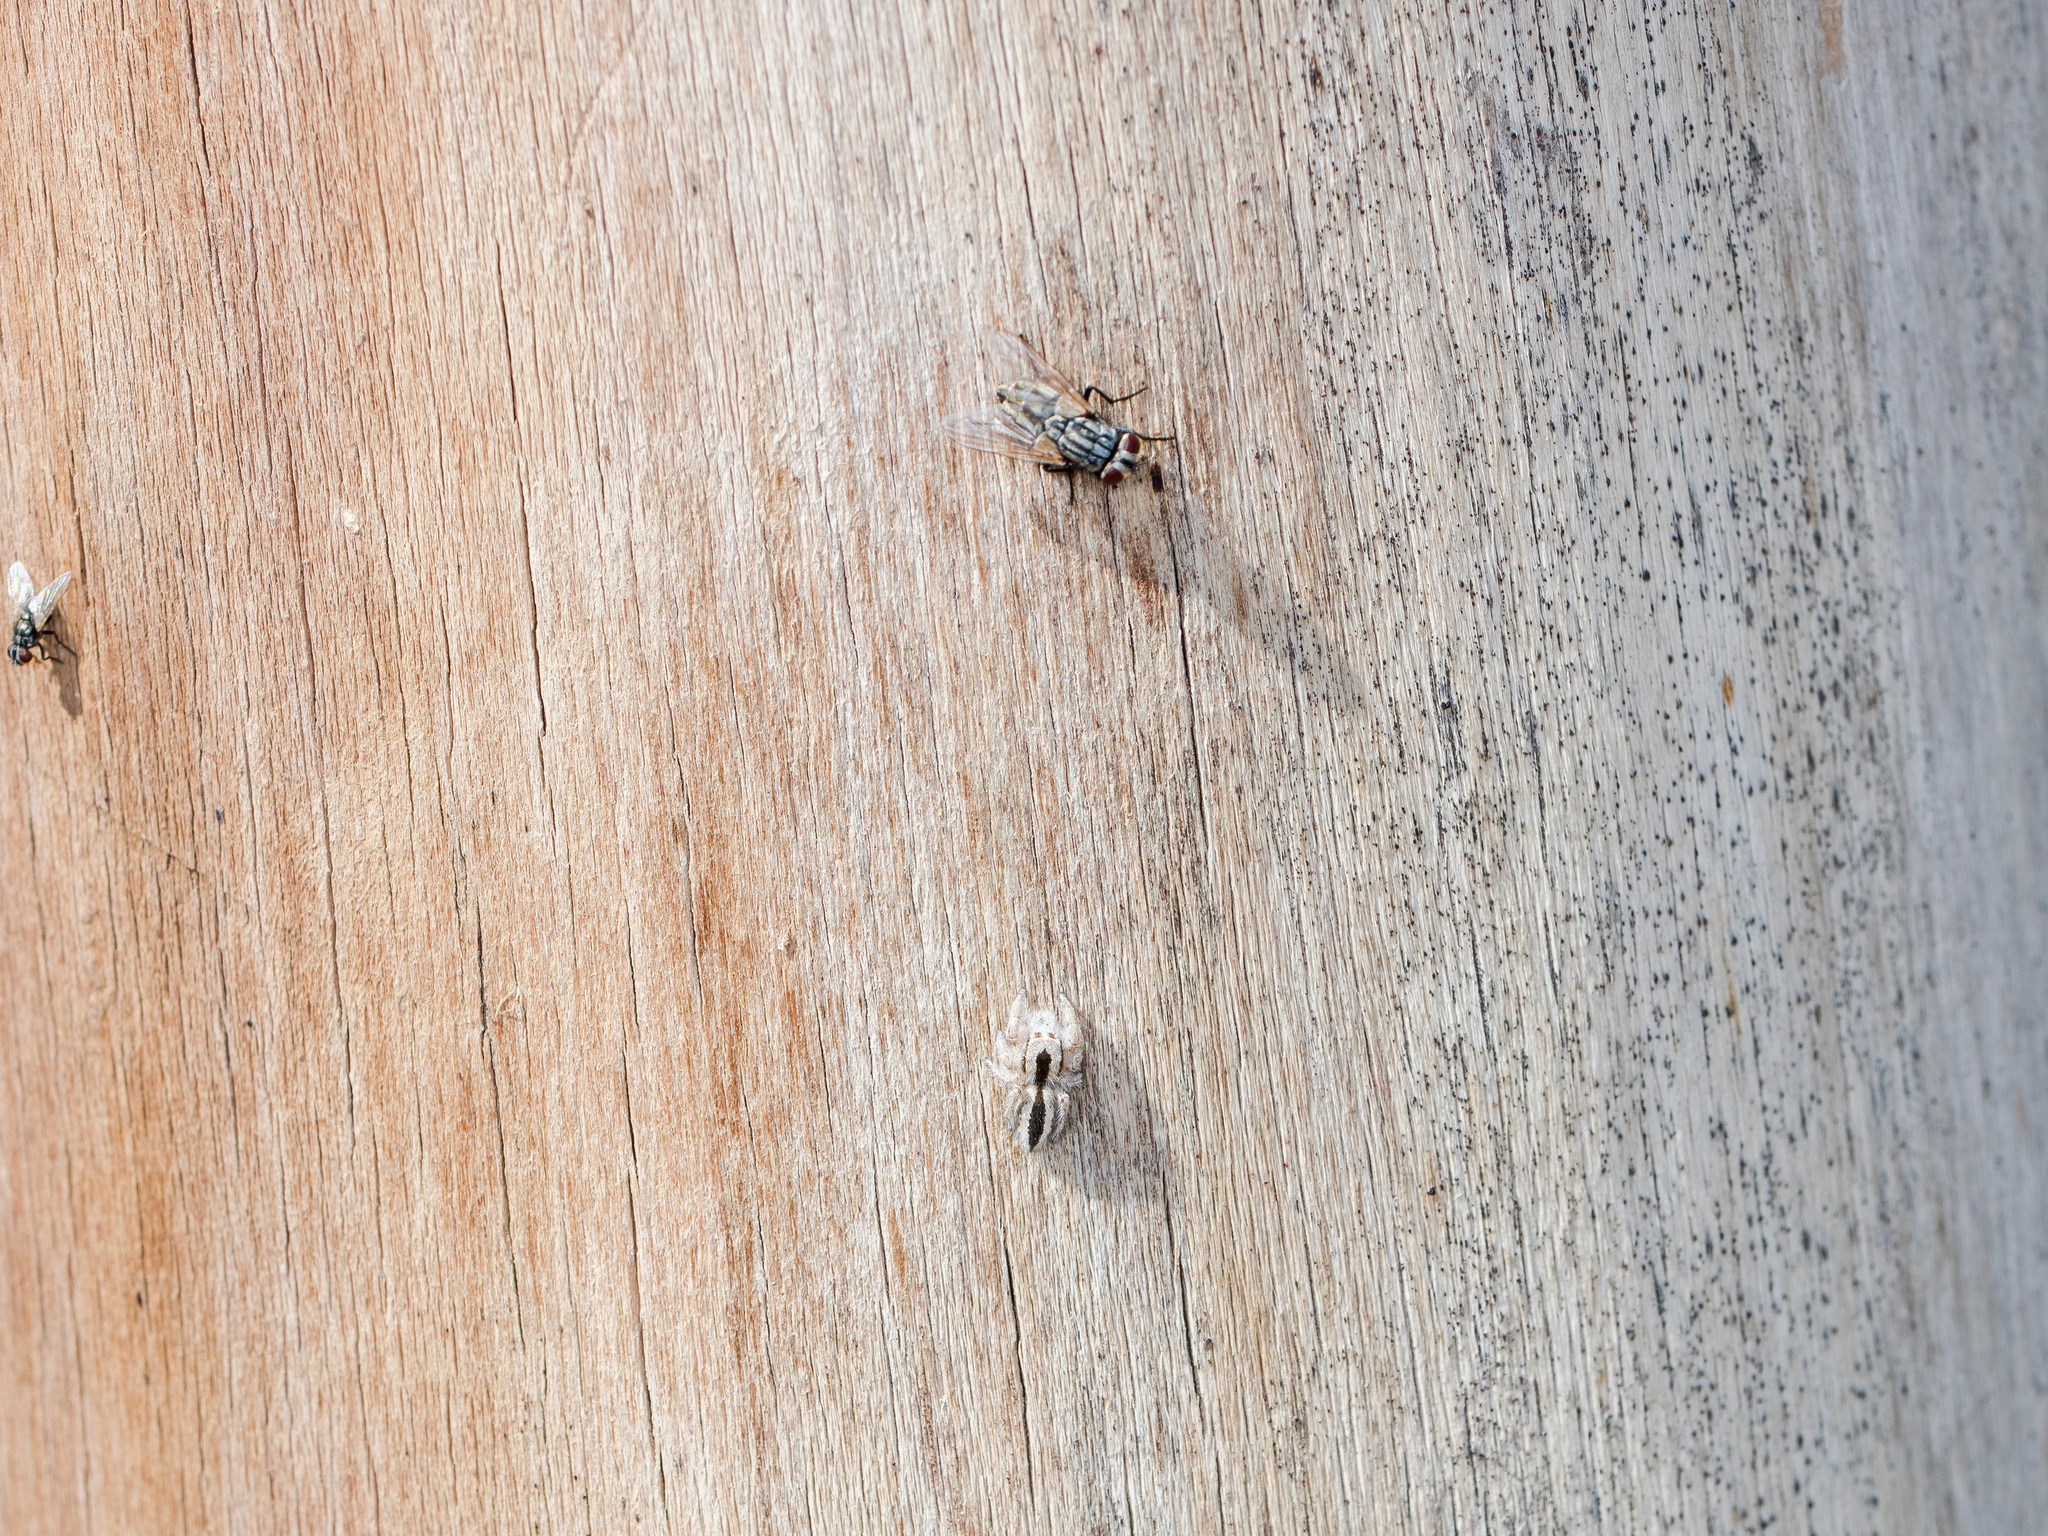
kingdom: Animalia
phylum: Arthropoda
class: Arachnida
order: Araneae
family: Salticidae
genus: Pseudomogrus
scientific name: Pseudomogrus validus
